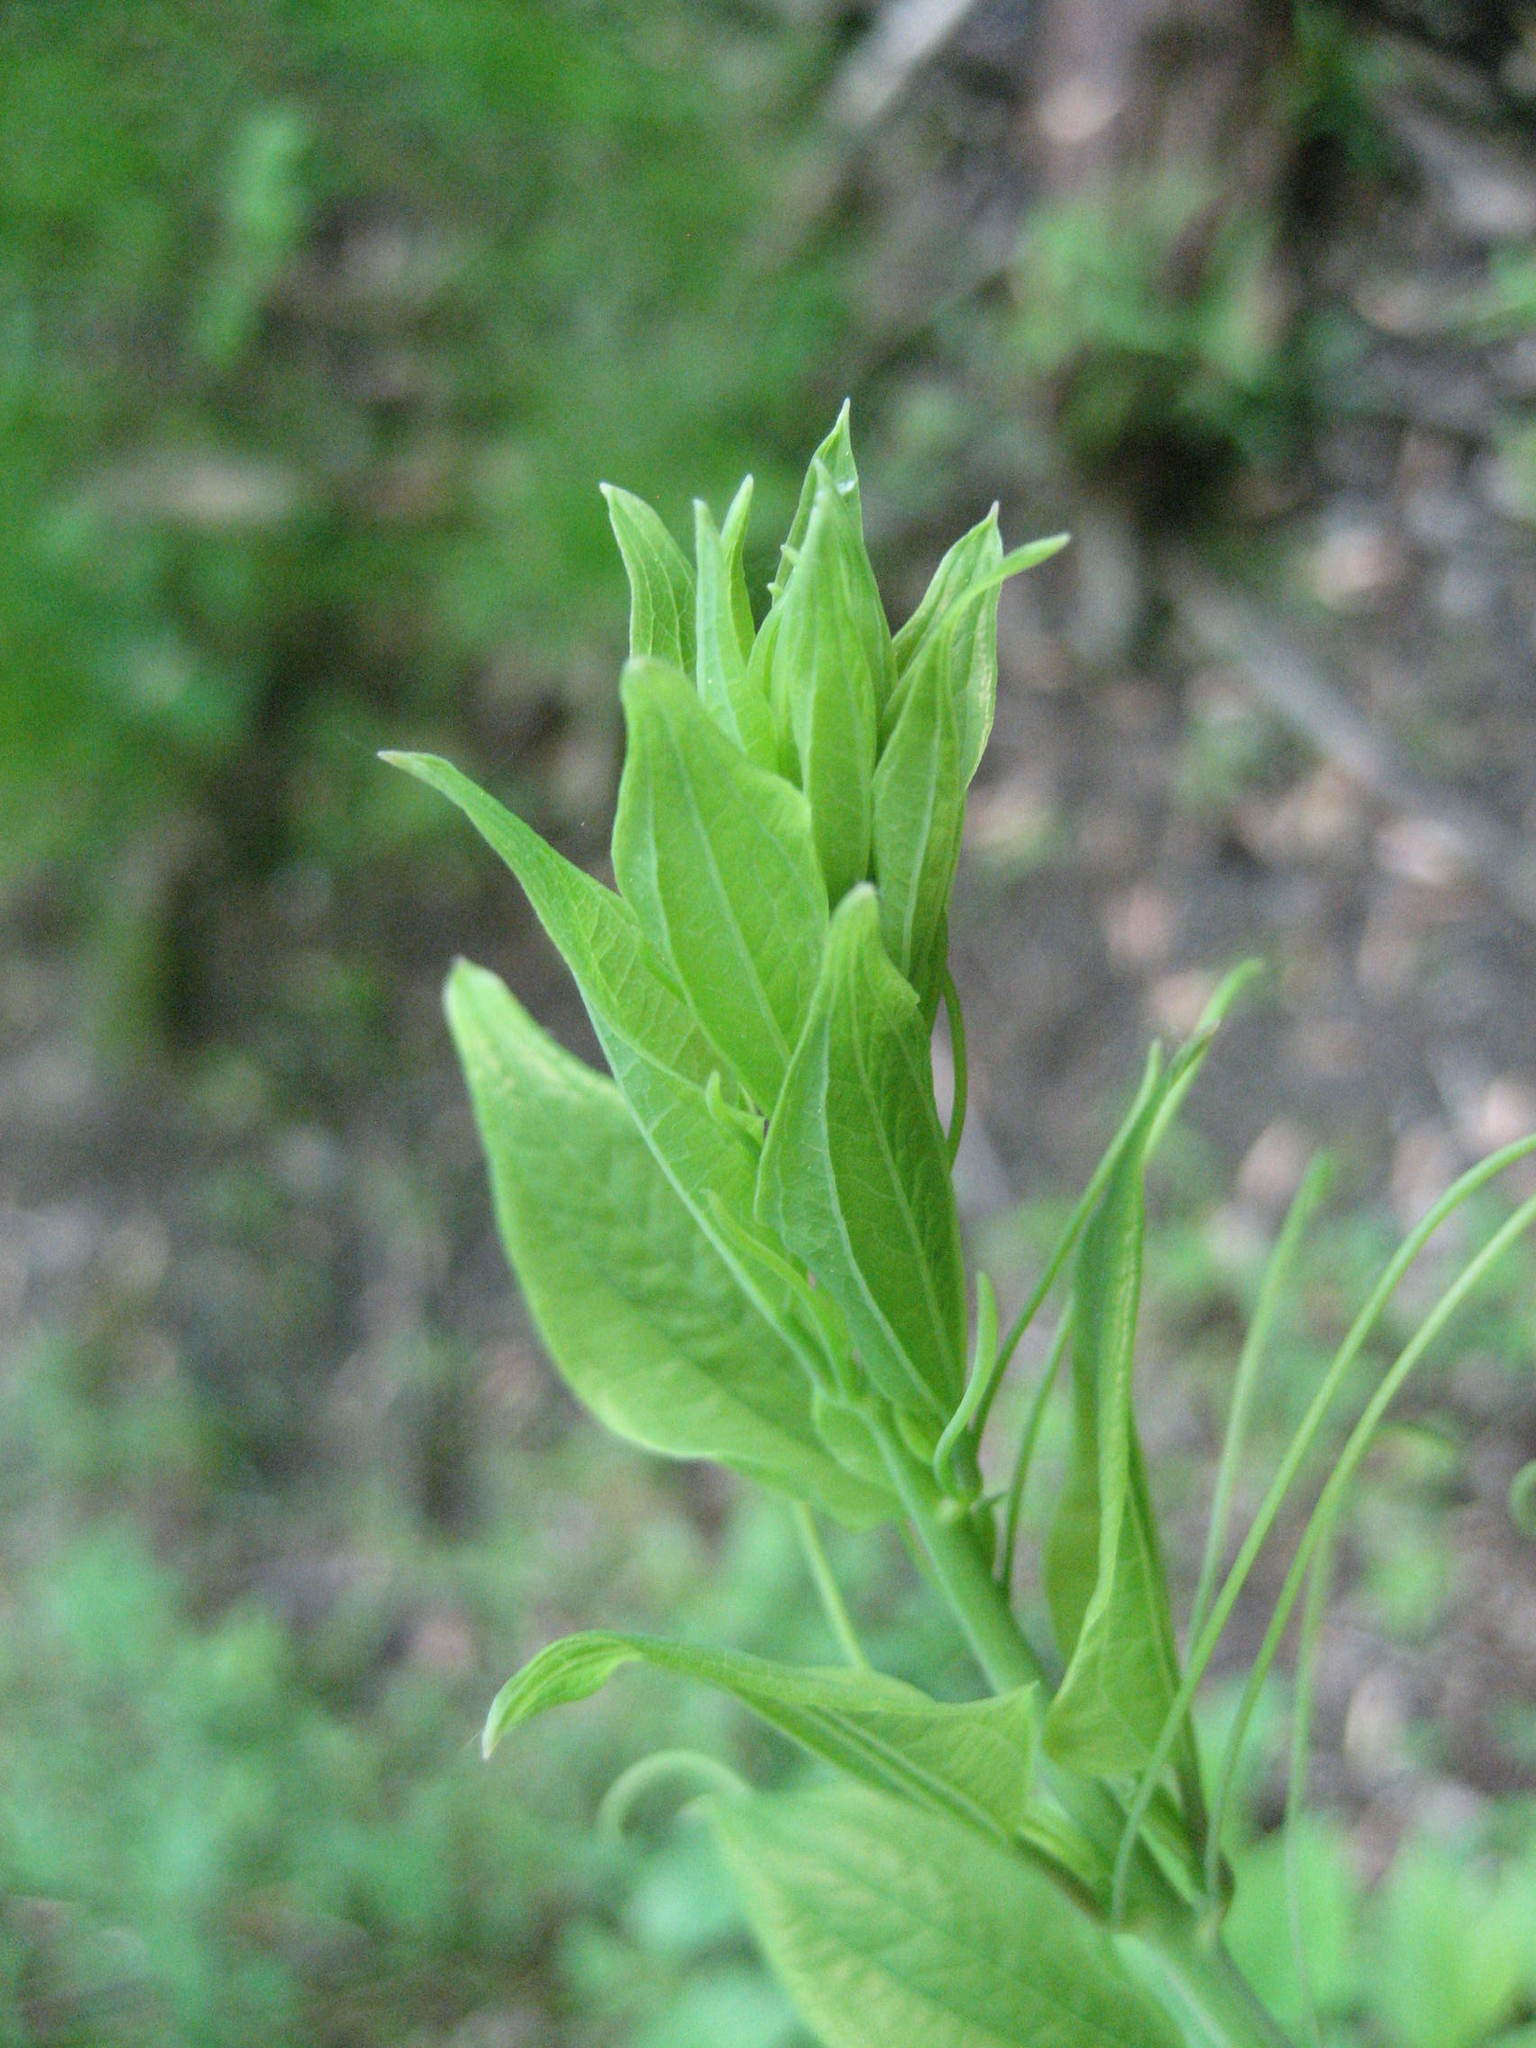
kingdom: Plantae
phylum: Tracheophyta
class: Liliopsida
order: Liliales
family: Smilacaceae
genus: Smilax
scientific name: Smilax herbacea
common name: Jacob's-ladder
